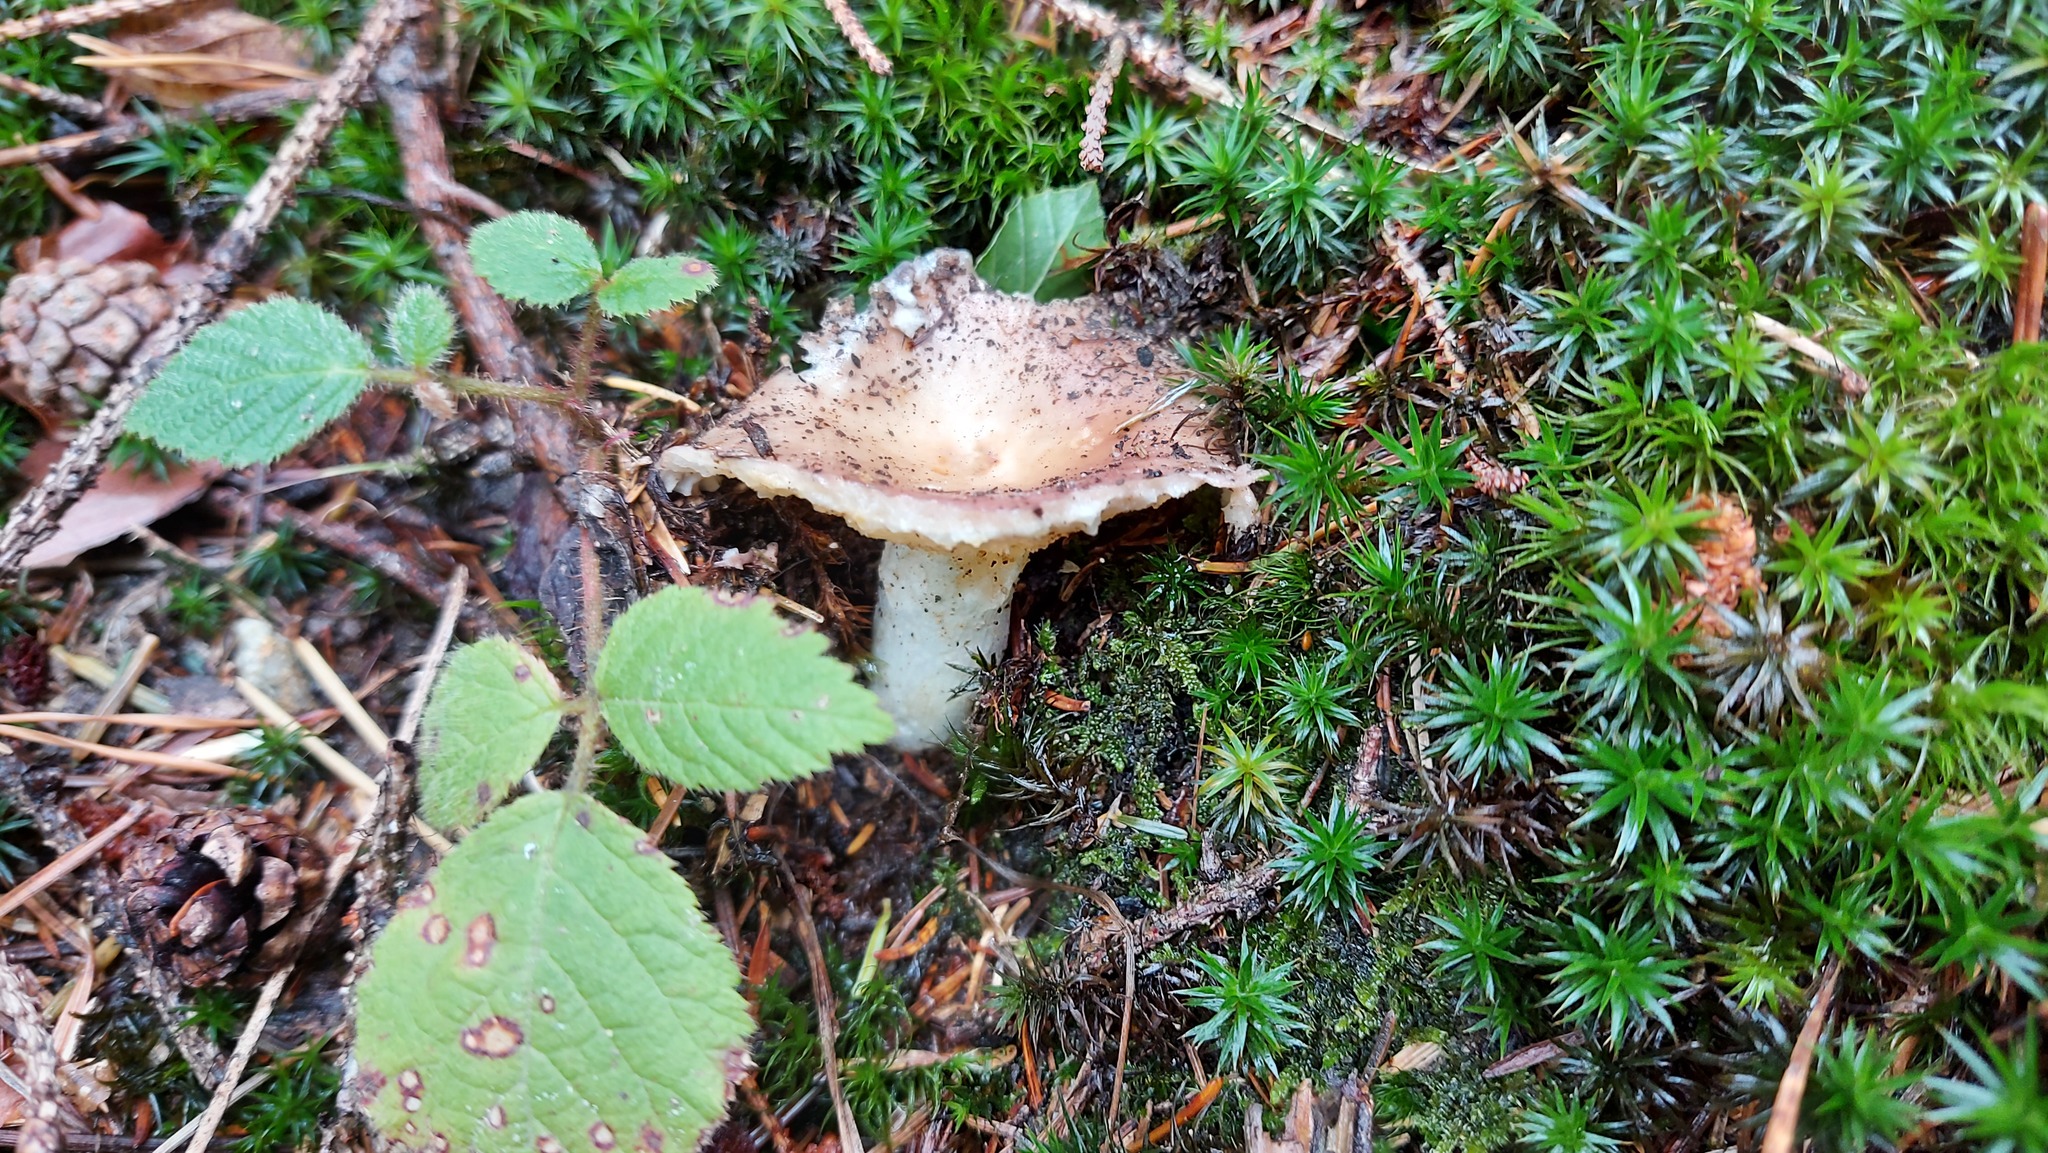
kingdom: Fungi
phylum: Basidiomycota
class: Agaricomycetes
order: Russulales
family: Russulaceae
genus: Russula
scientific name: Russula vesca
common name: Bare-toothed russula
